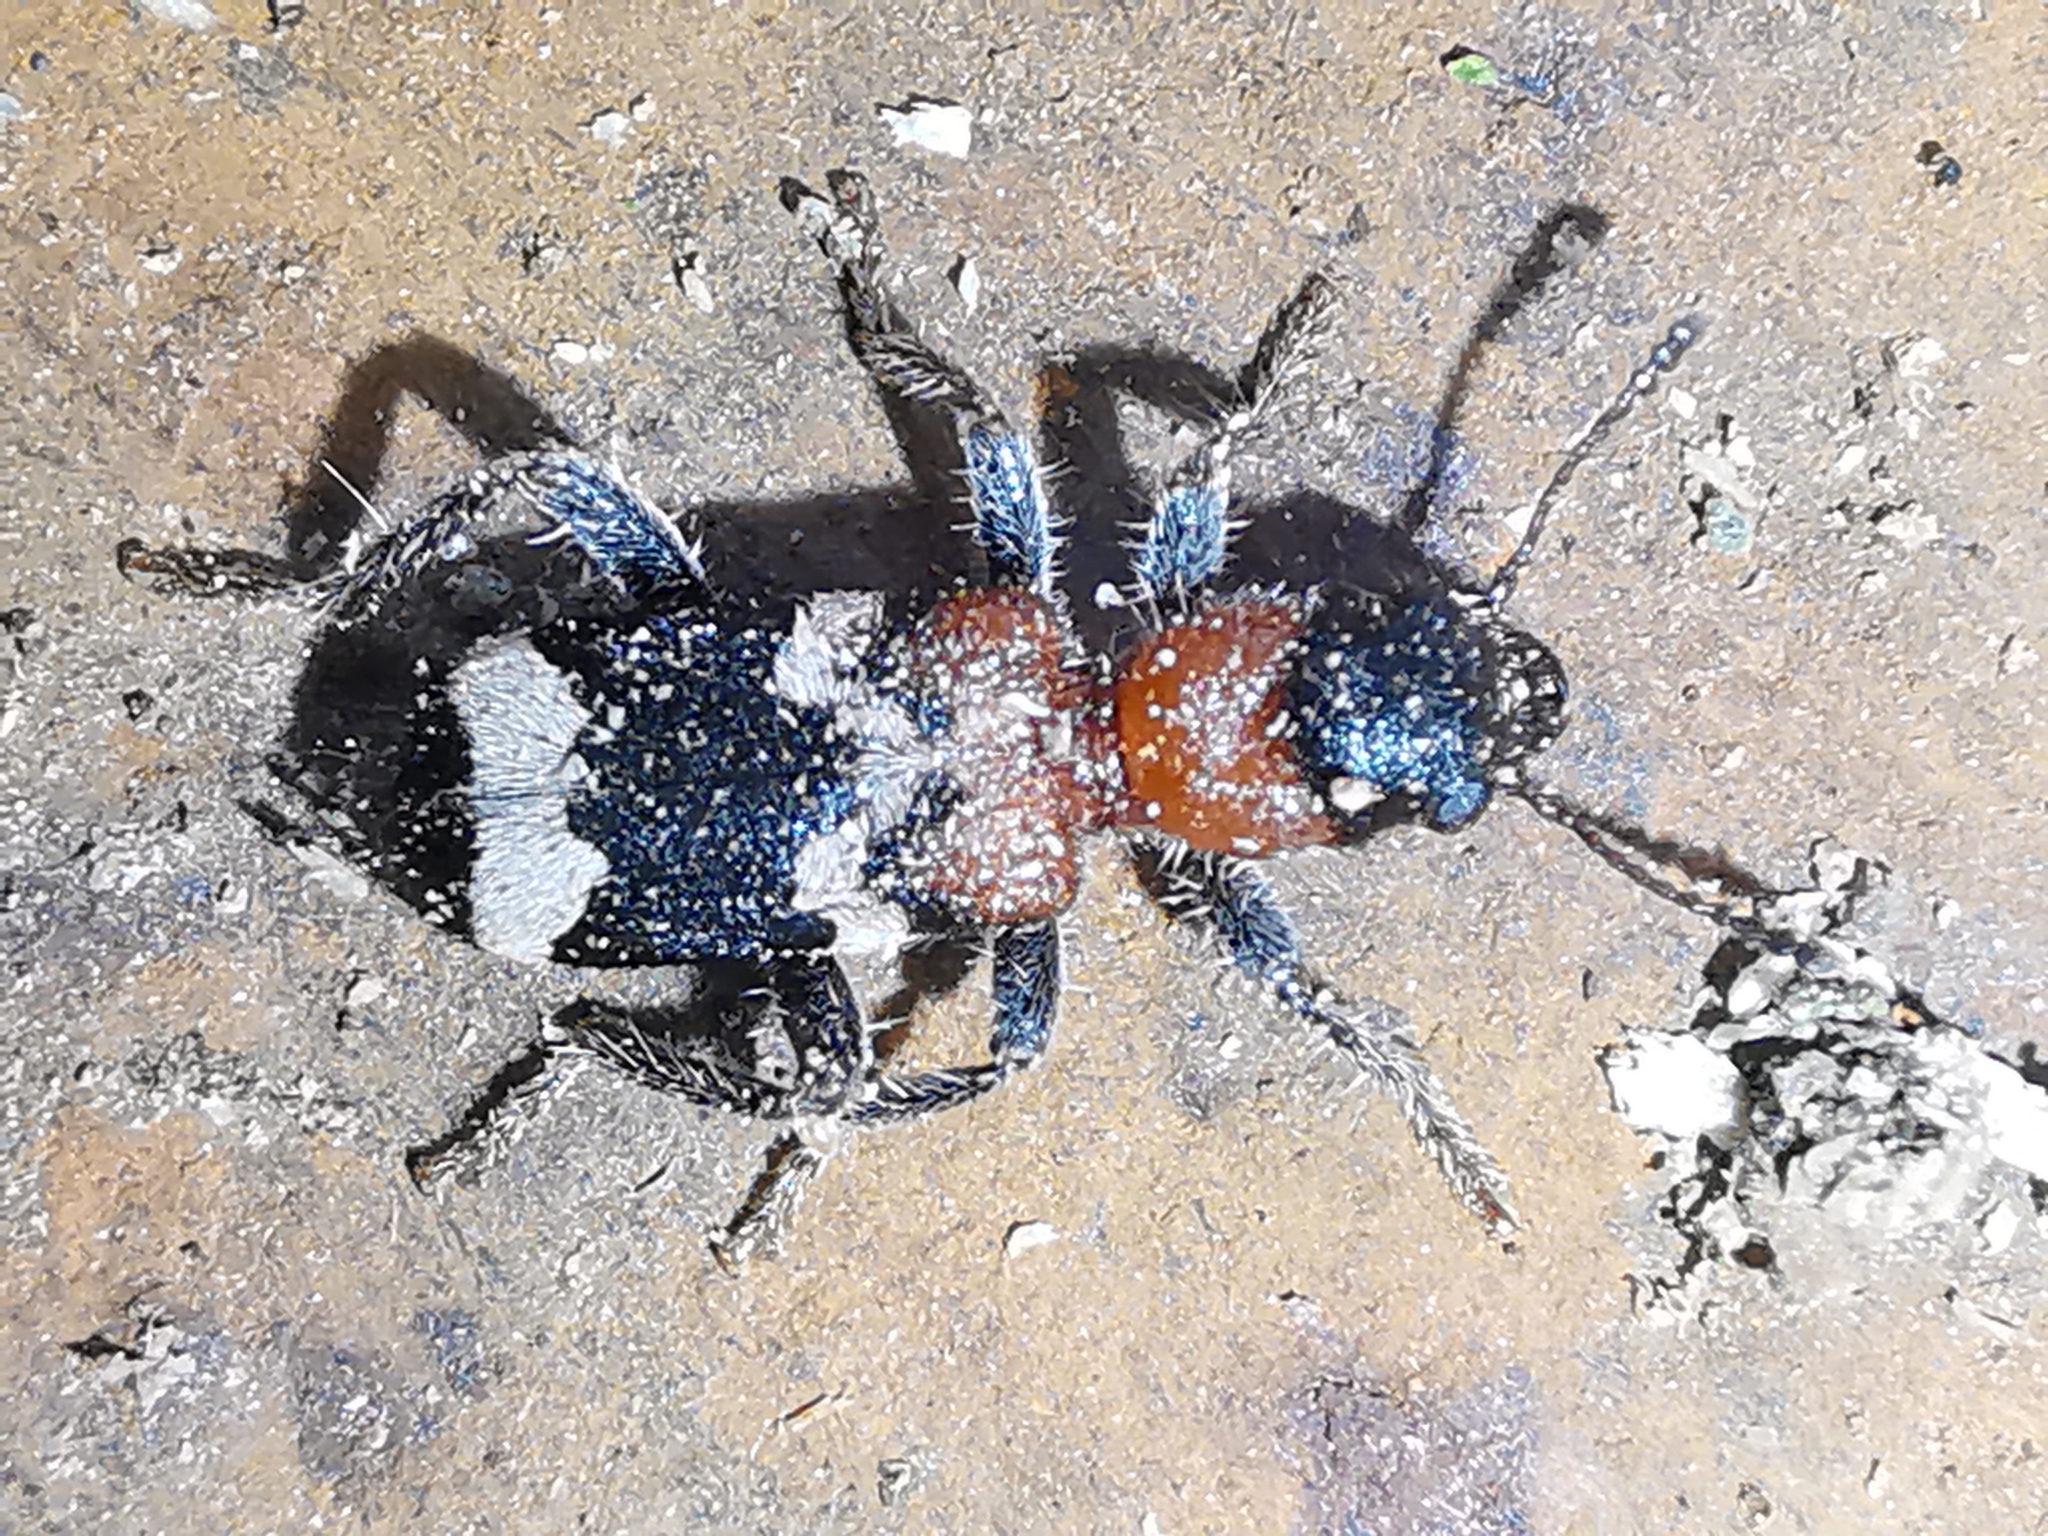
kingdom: Animalia
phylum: Arthropoda
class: Insecta
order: Coleoptera
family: Cleridae
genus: Thanasimus
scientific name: Thanasimus formicarius
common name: Ant beetle
